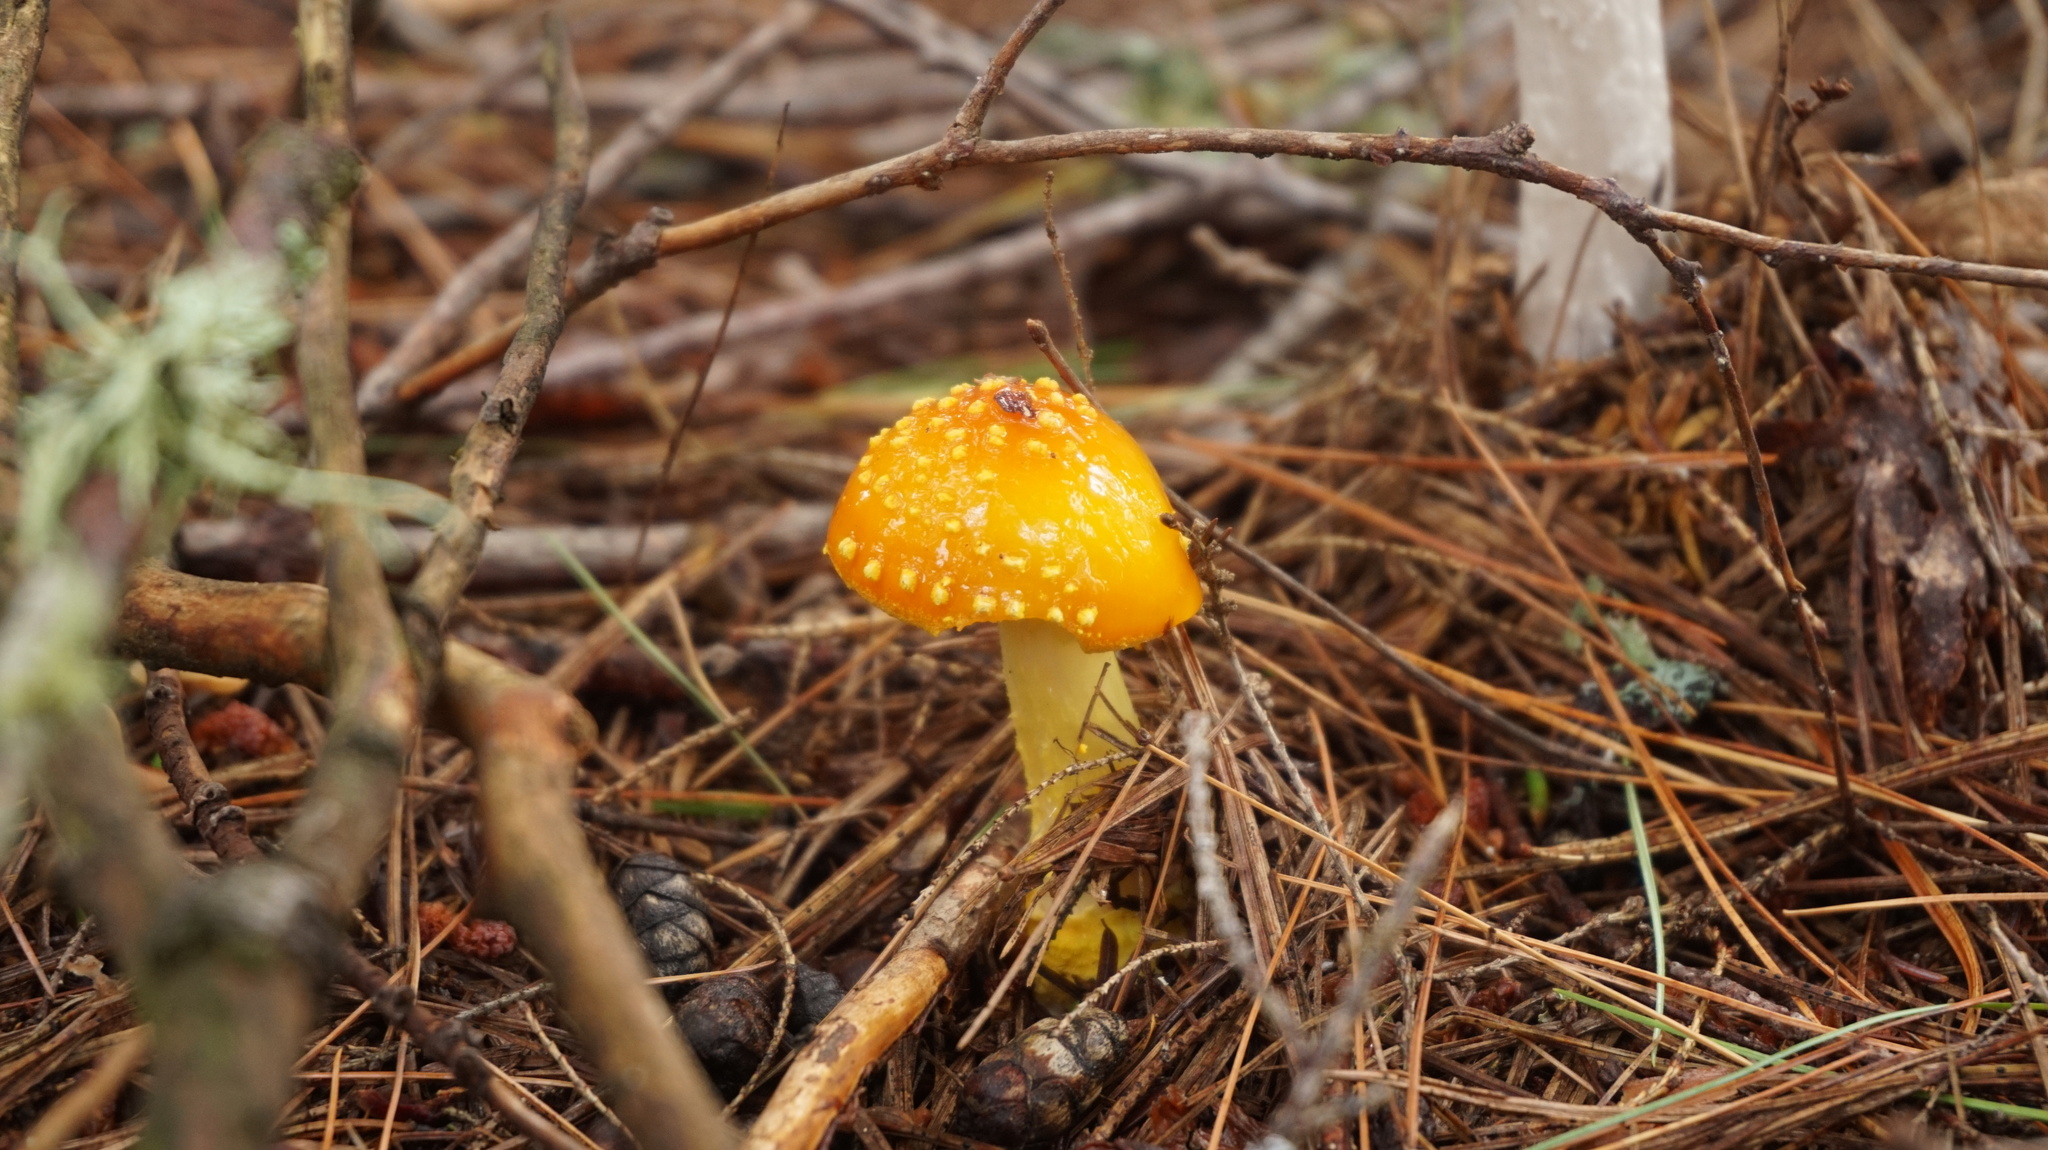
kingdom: Fungi
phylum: Basidiomycota
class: Agaricomycetes
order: Agaricales
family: Amanitaceae
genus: Amanita
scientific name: Amanita flavoconia
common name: Yellow patches
